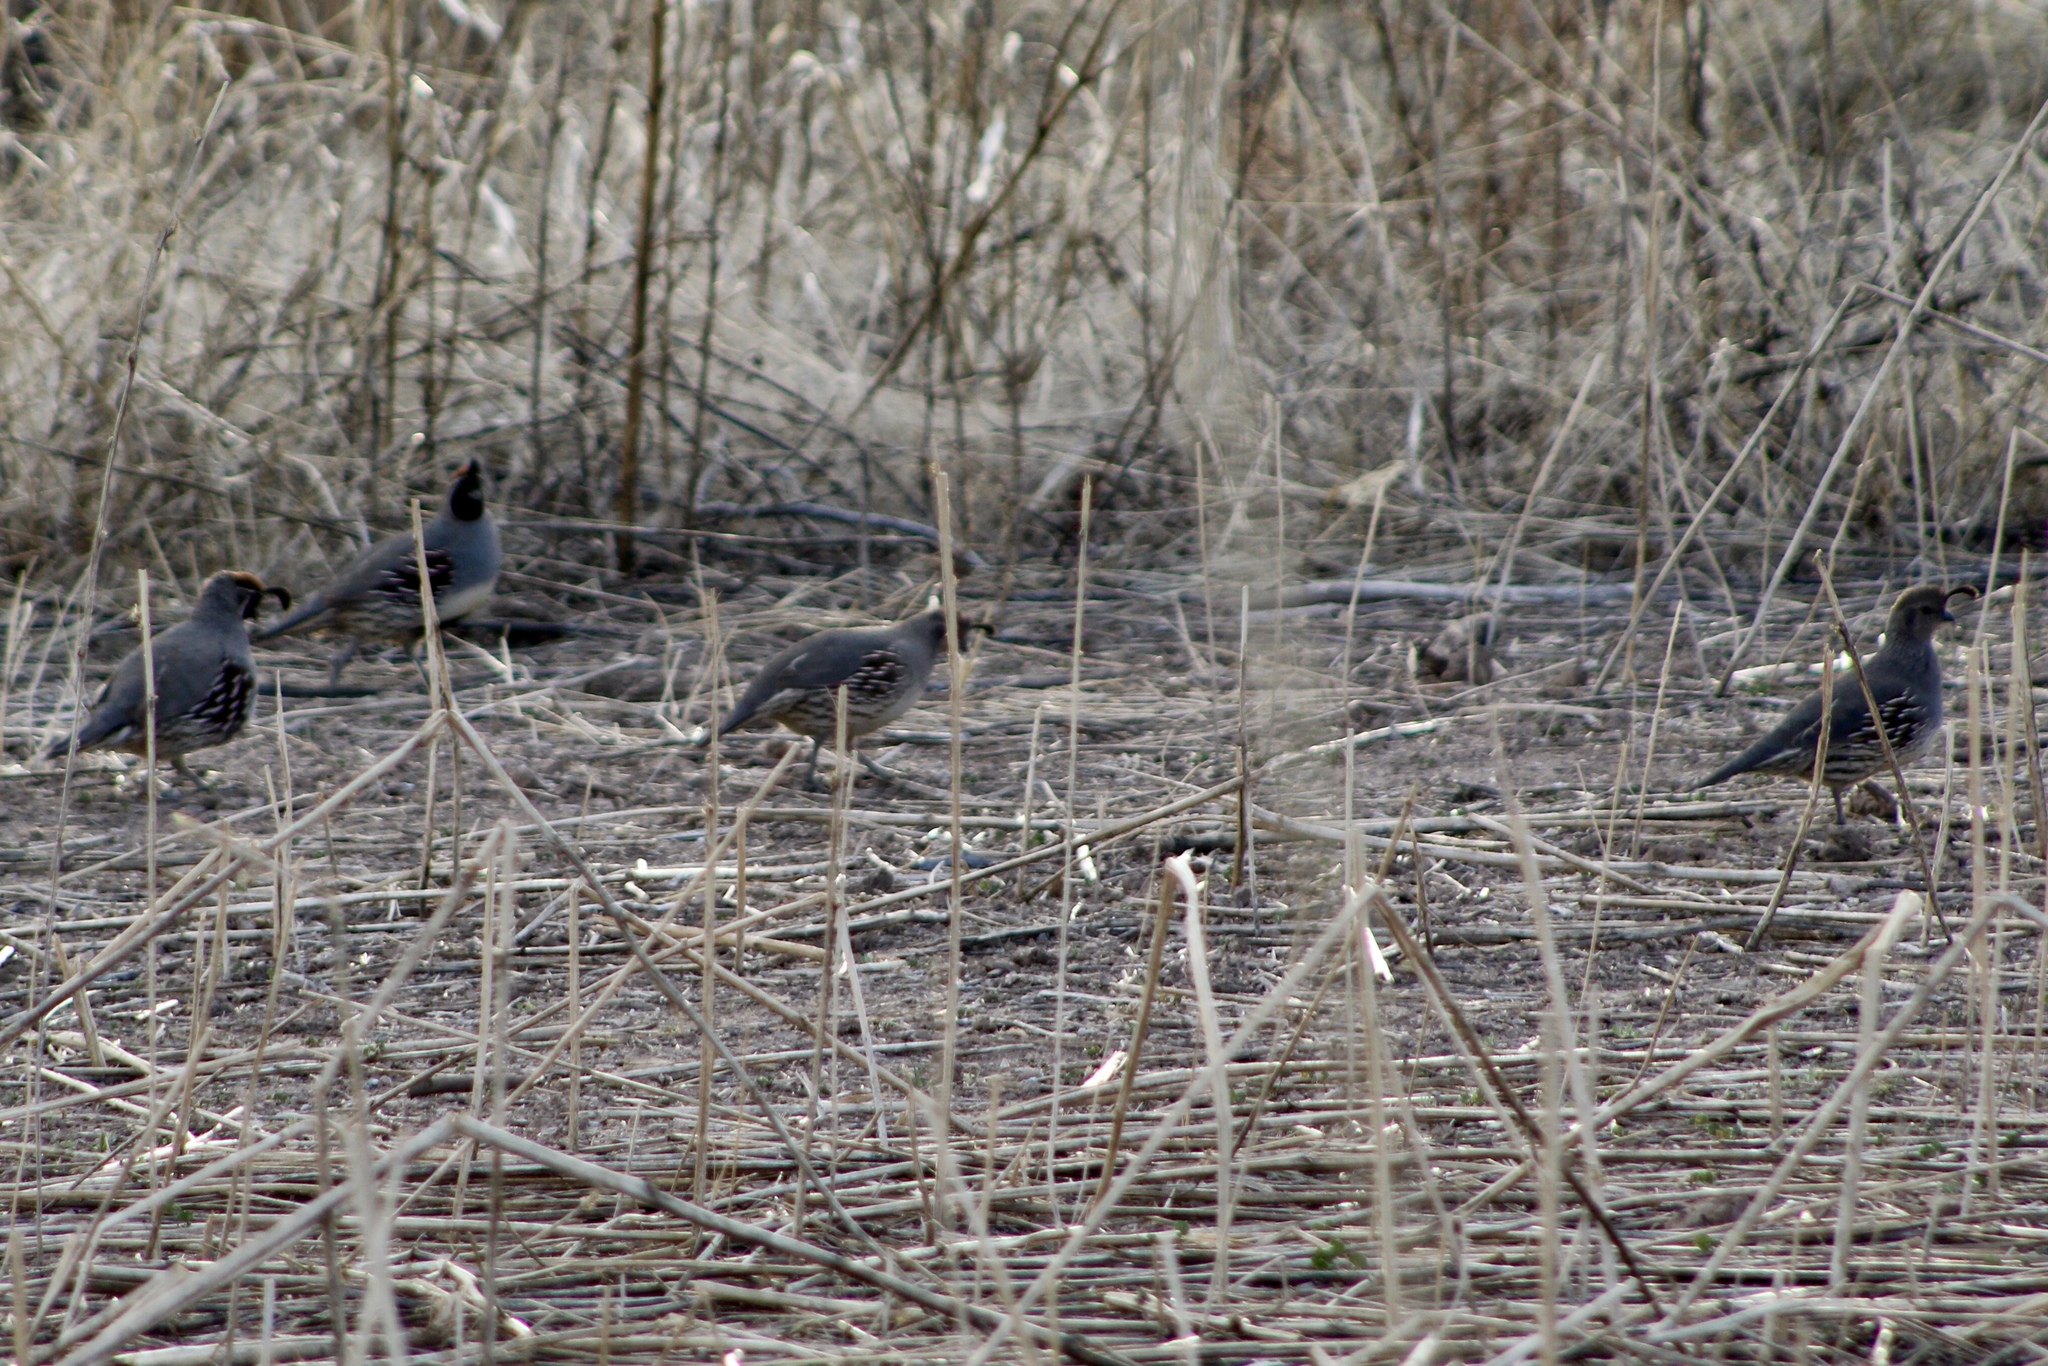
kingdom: Animalia
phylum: Chordata
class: Aves
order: Galliformes
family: Odontophoridae
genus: Callipepla
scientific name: Callipepla gambelii
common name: Gambel's quail
